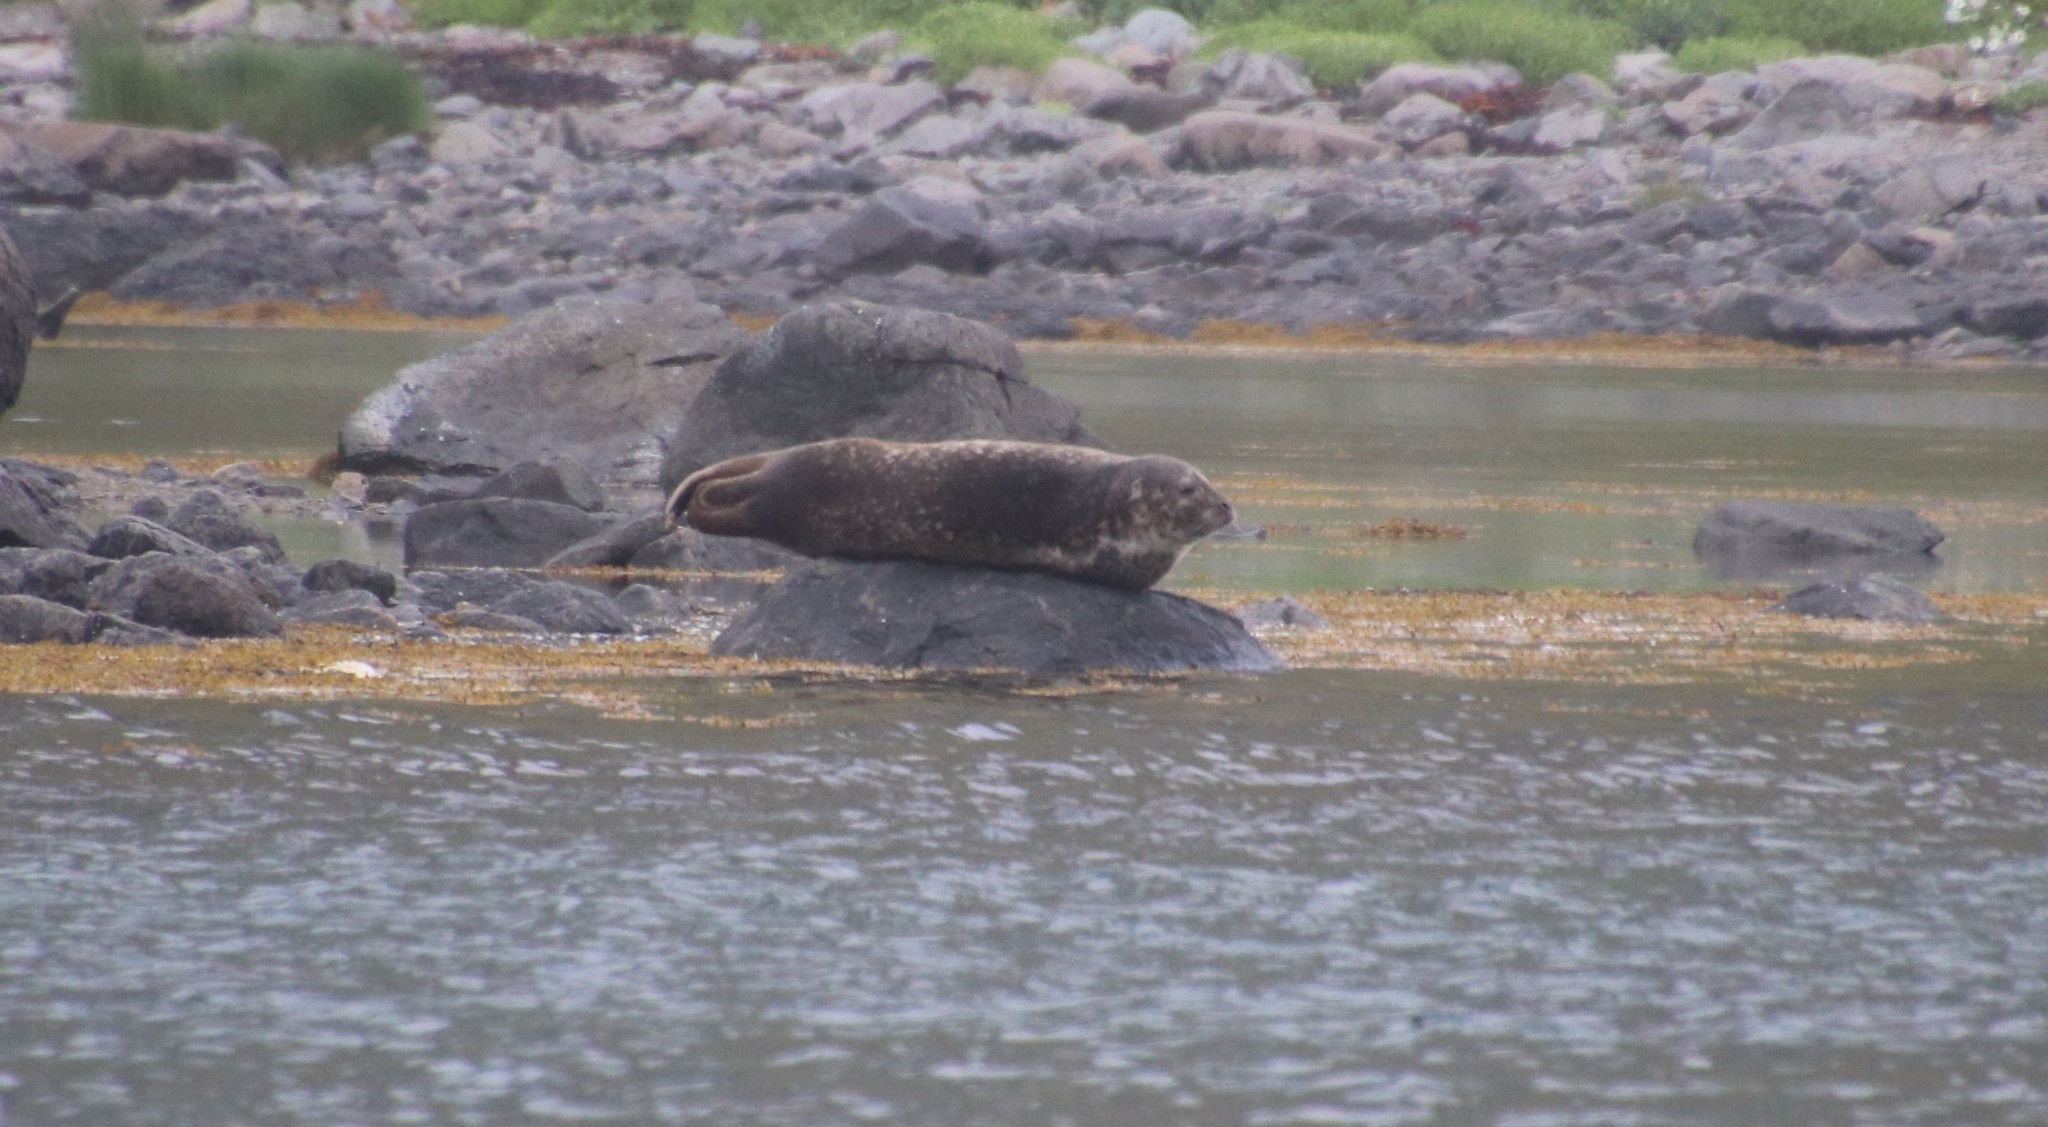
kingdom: Animalia
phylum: Chordata
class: Mammalia
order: Carnivora
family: Phocidae
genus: Phoca
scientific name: Phoca vitulina
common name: Harbor seal
